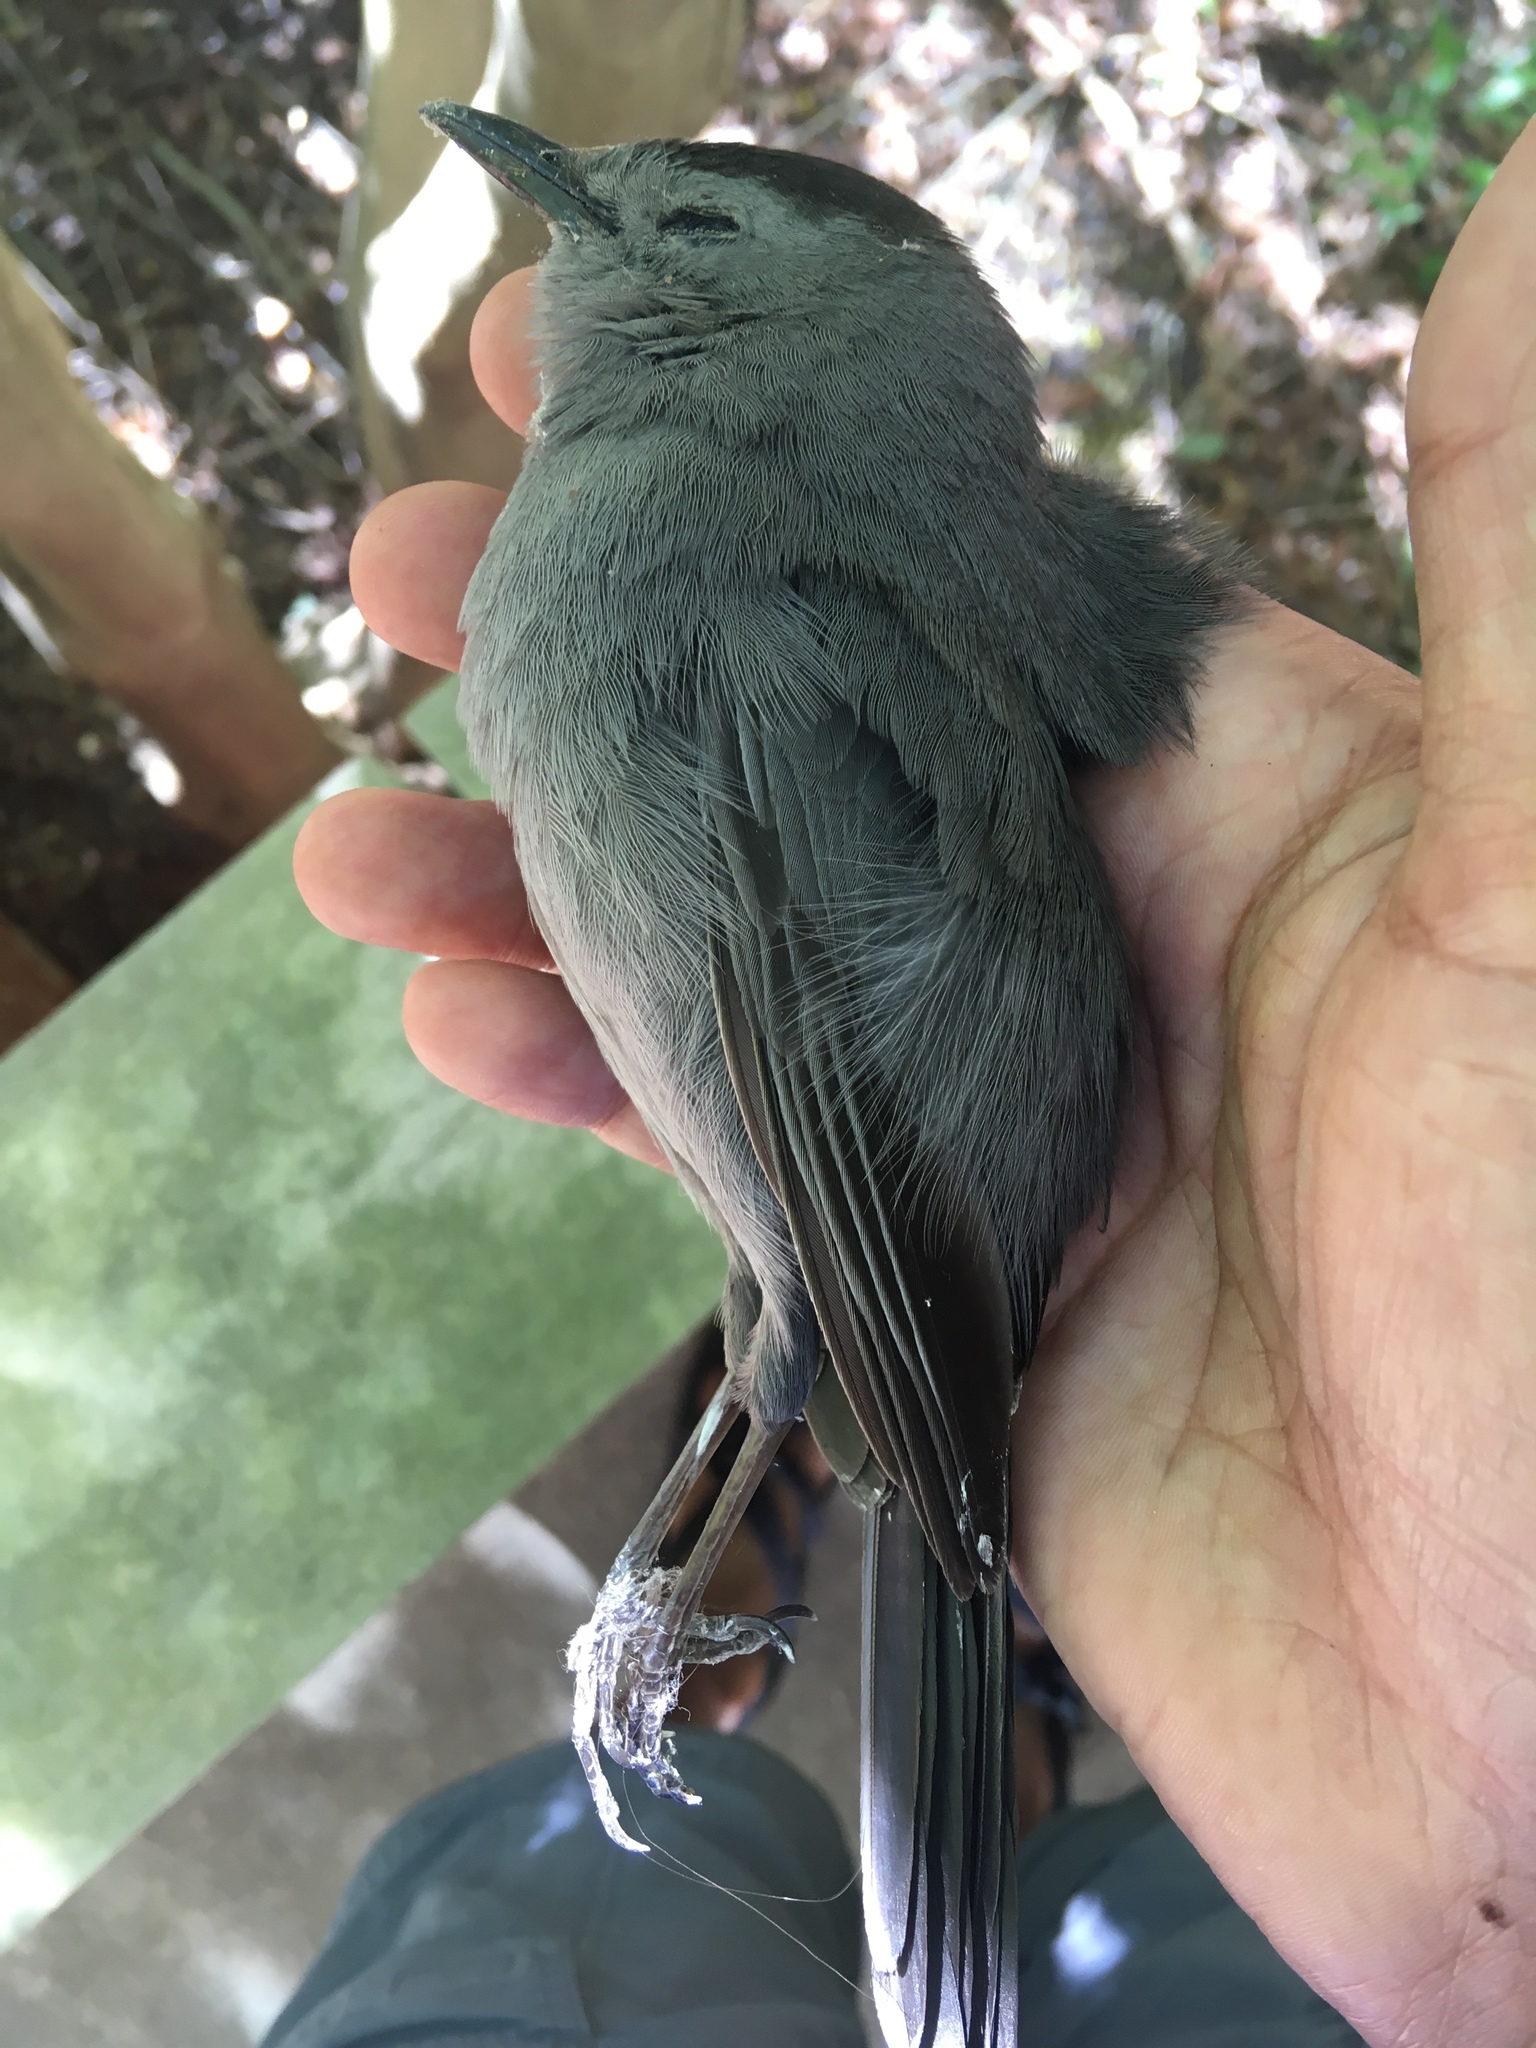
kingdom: Animalia
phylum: Chordata
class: Aves
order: Passeriformes
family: Mimidae
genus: Dumetella
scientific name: Dumetella carolinensis
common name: Gray catbird
